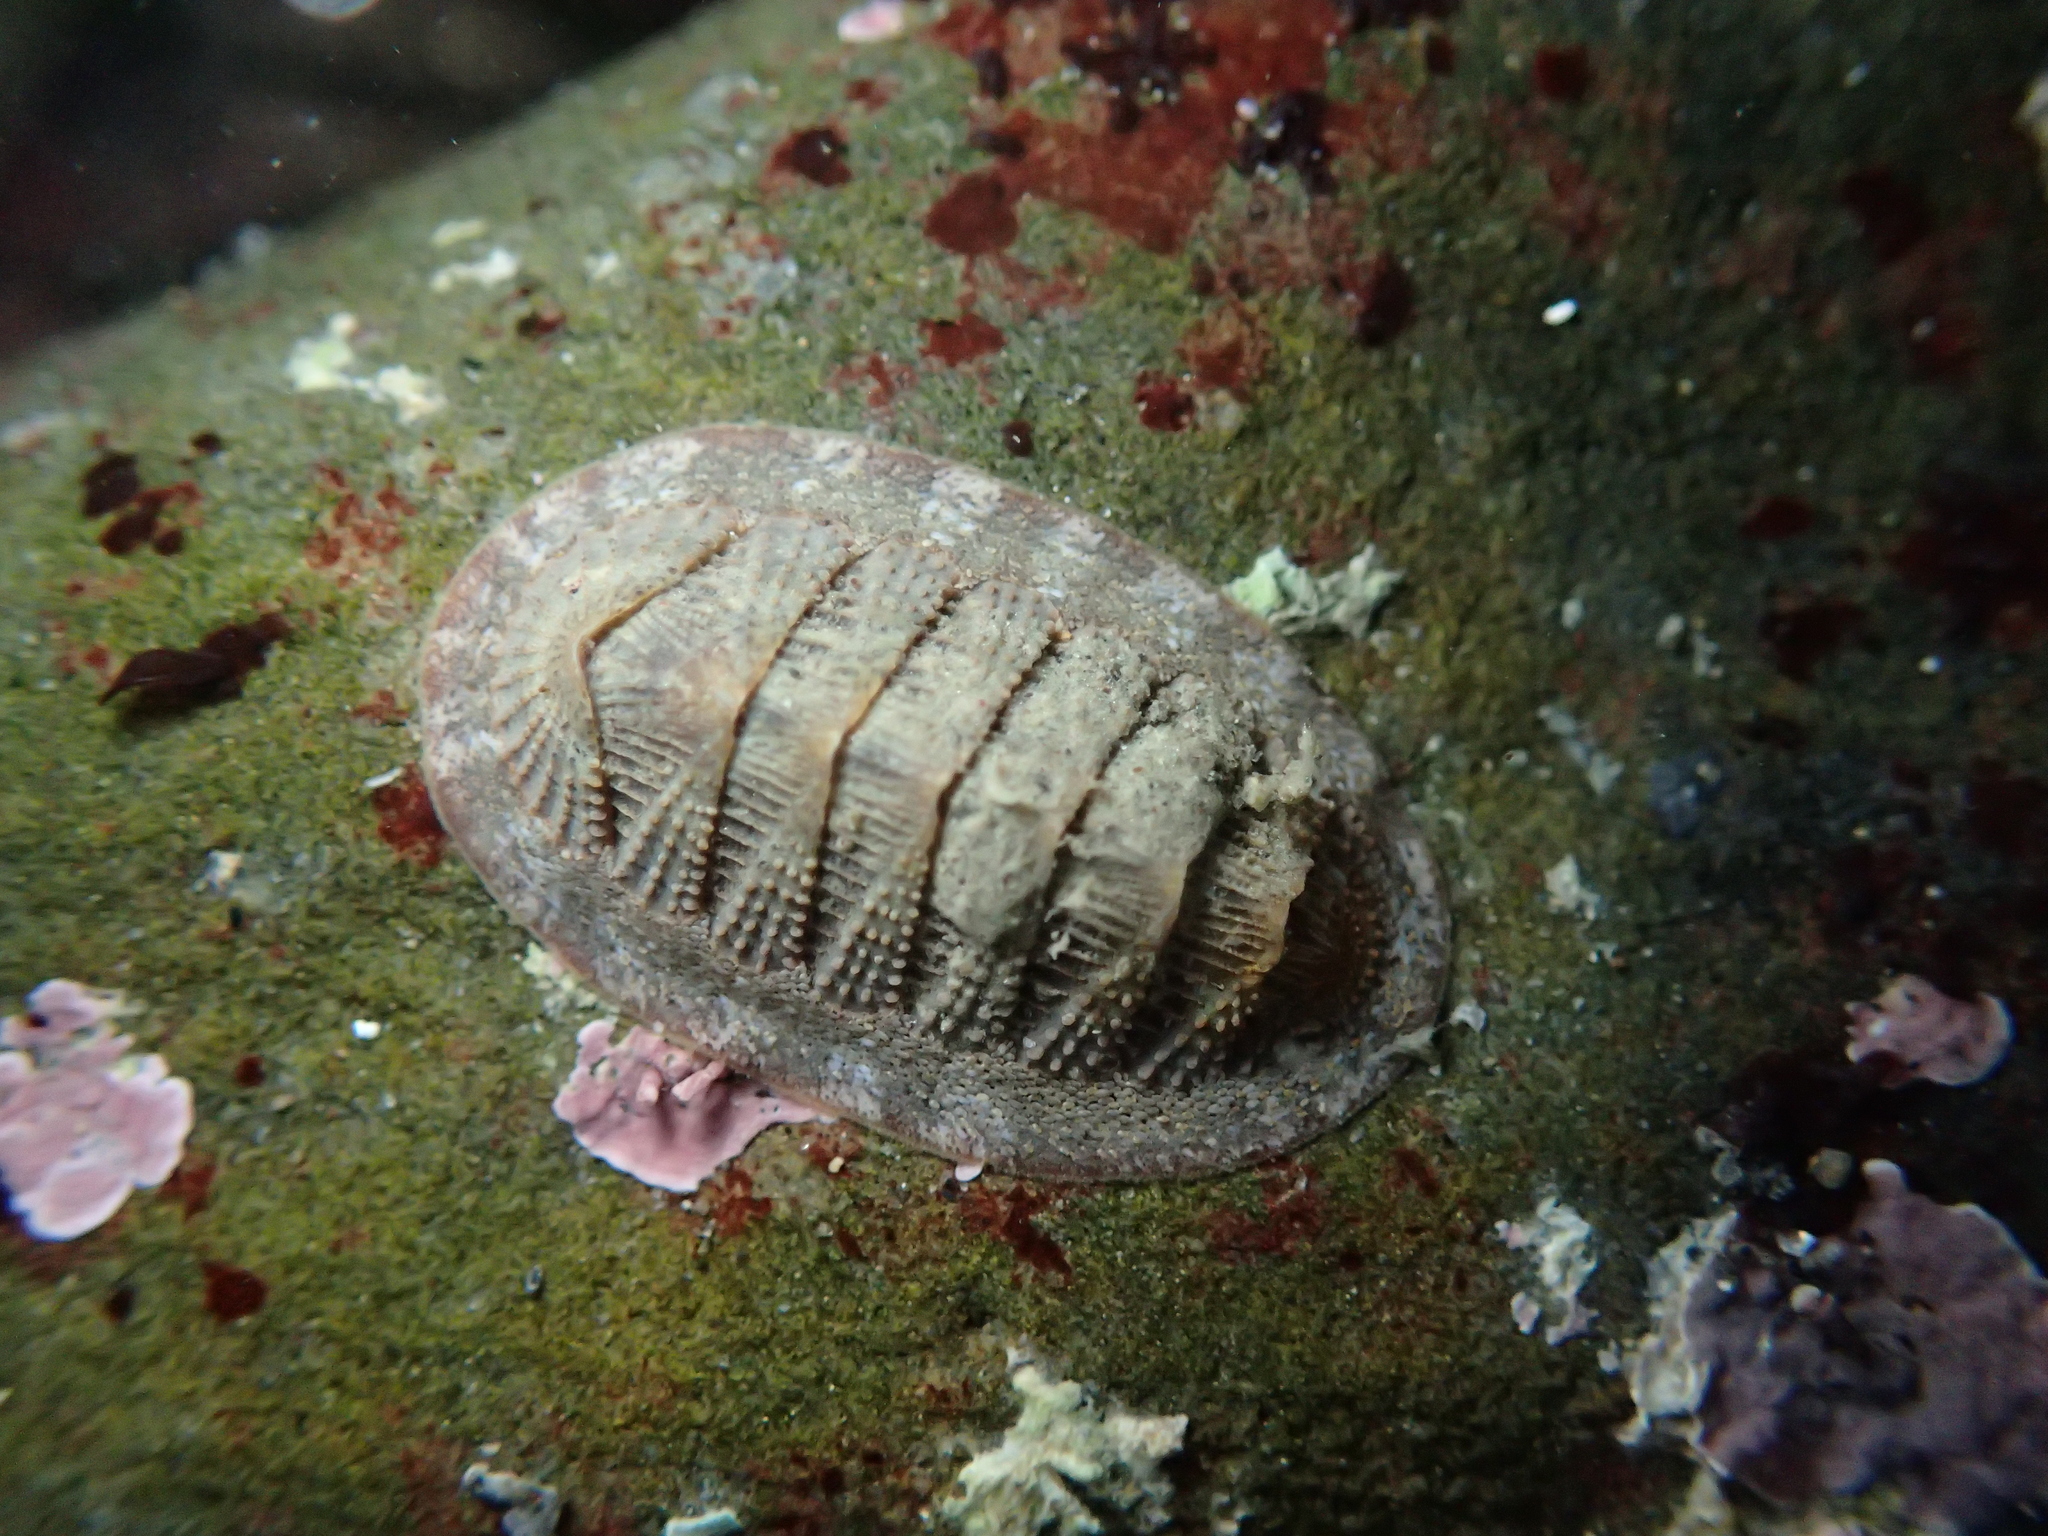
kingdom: Animalia
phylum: Mollusca
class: Polyplacophora
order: Chitonida
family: Ischnochitonidae
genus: Lepidozona
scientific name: Lepidozona cooperi
